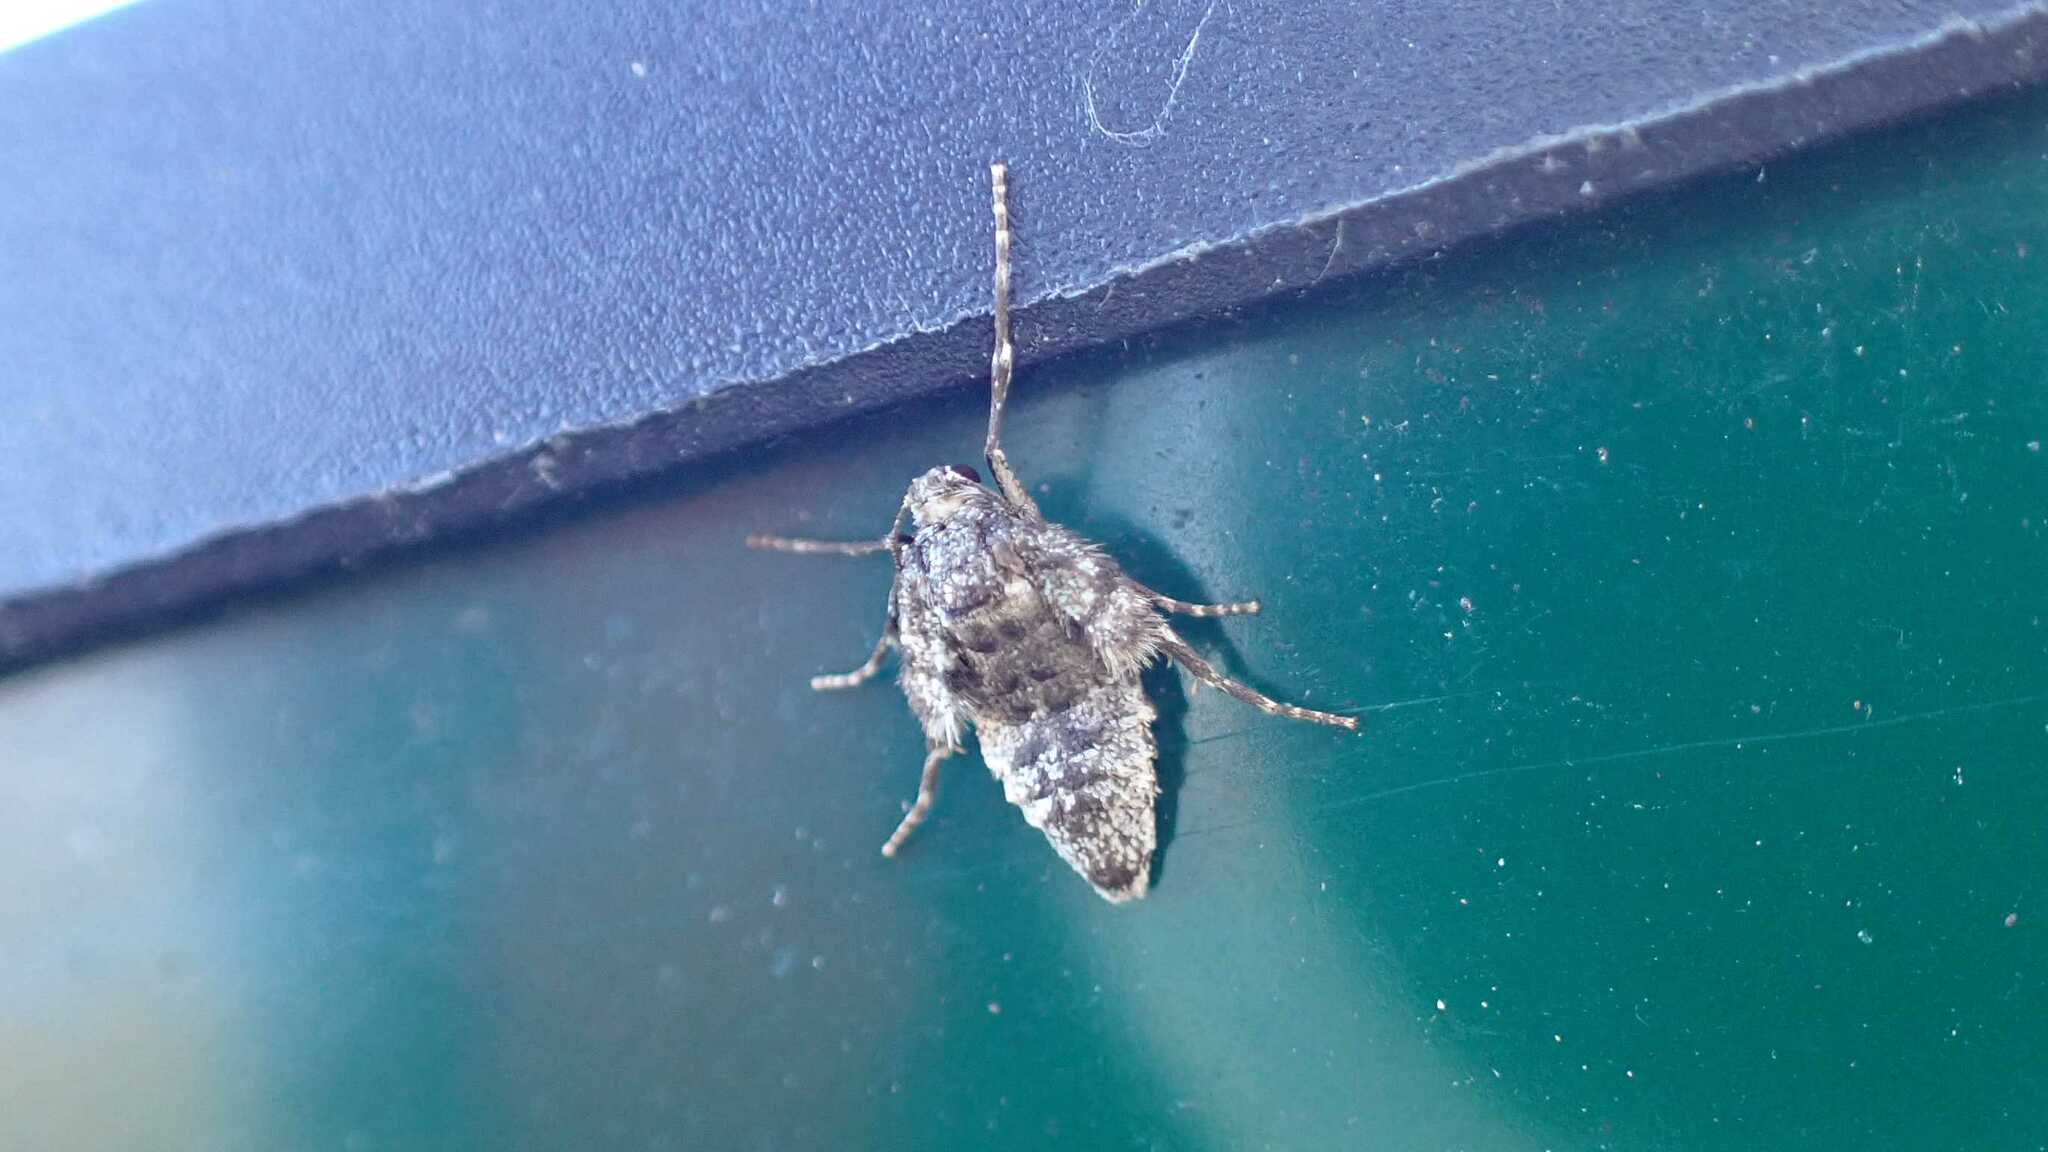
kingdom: Animalia
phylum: Arthropoda
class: Insecta
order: Lepidoptera
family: Geometridae
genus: Operophtera
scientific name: Operophtera brumata
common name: Winter moth
